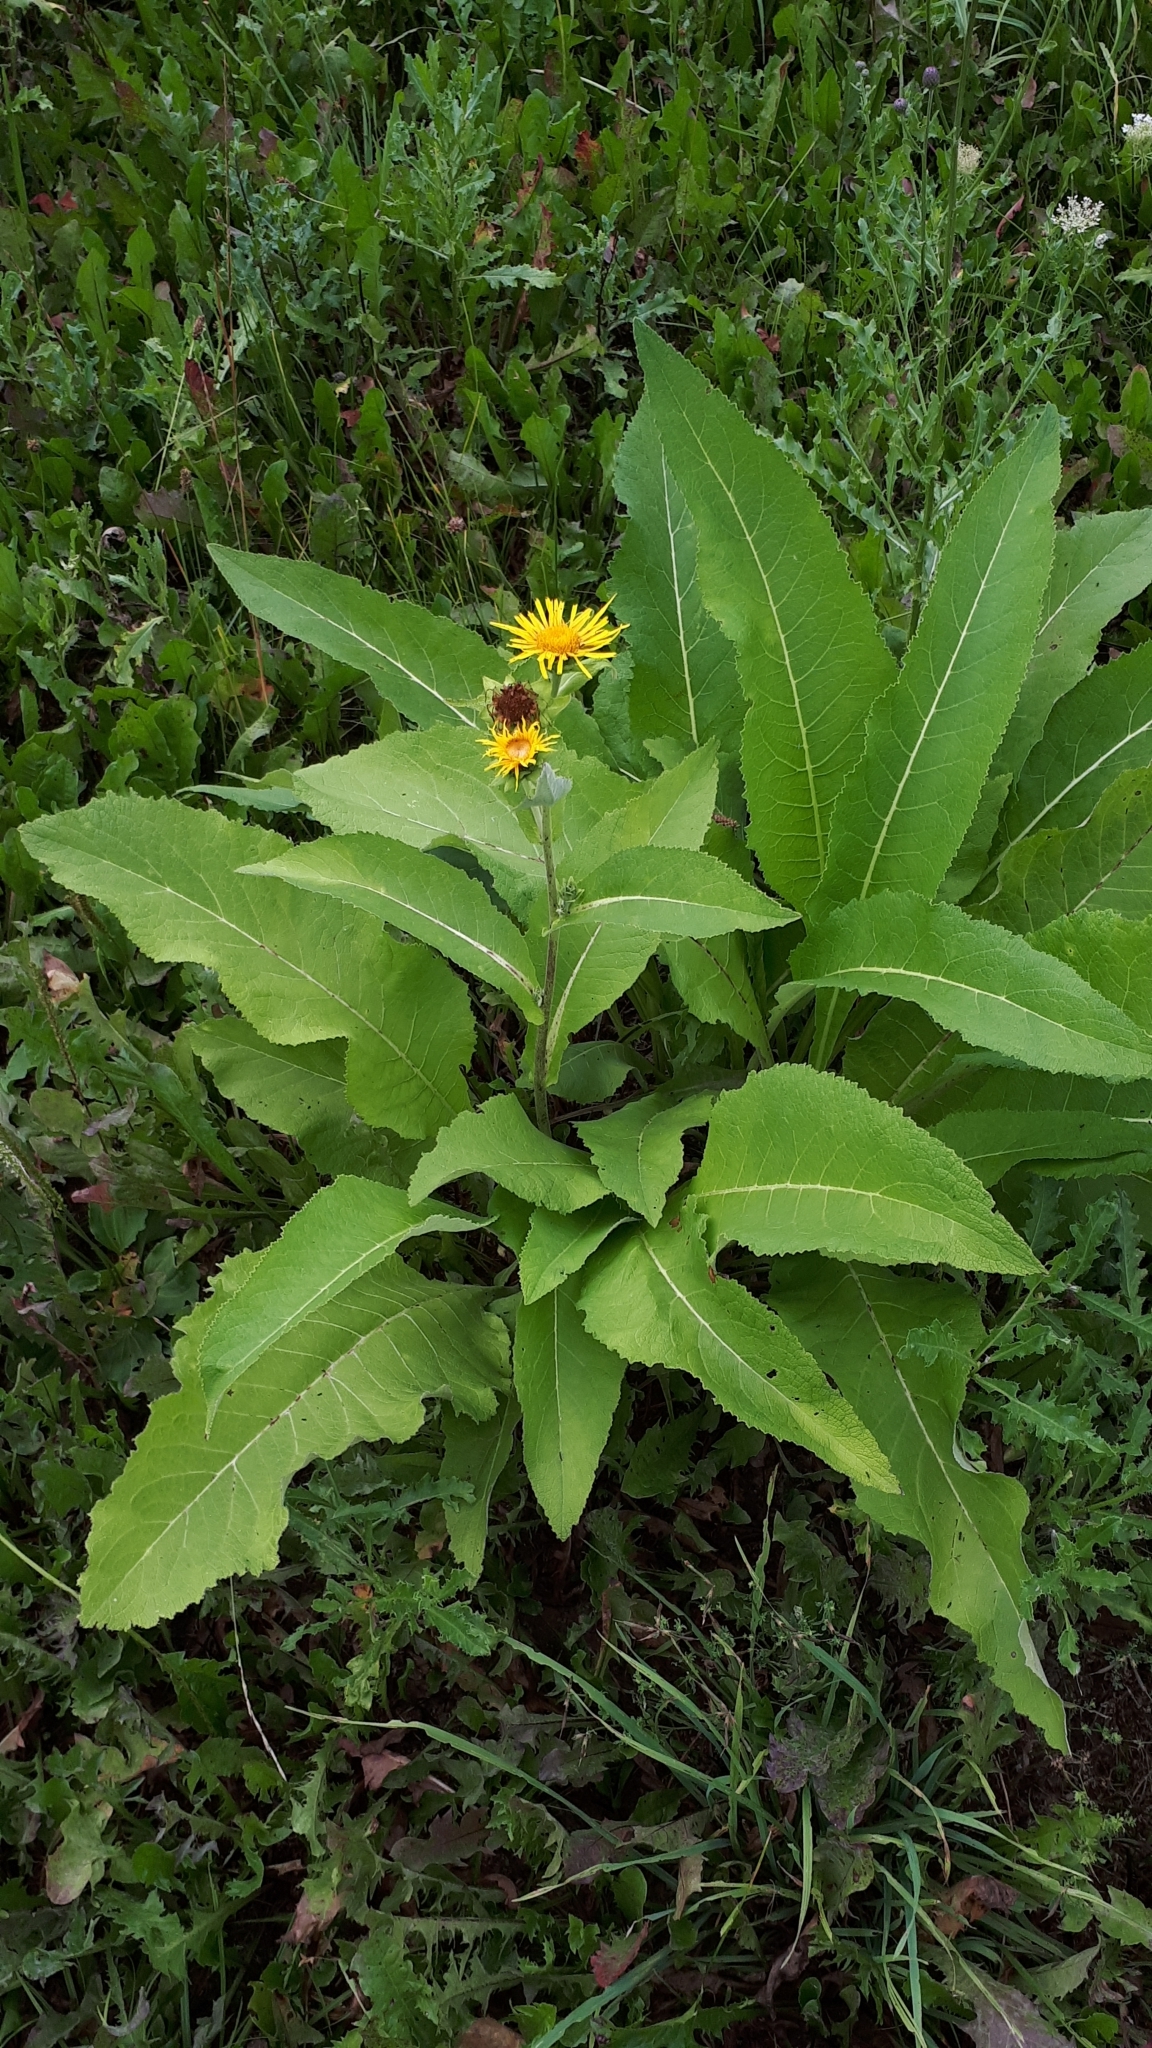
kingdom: Plantae
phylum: Tracheophyta
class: Magnoliopsida
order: Asterales
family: Asteraceae
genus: Inula
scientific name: Inula helenium
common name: Elecampane
